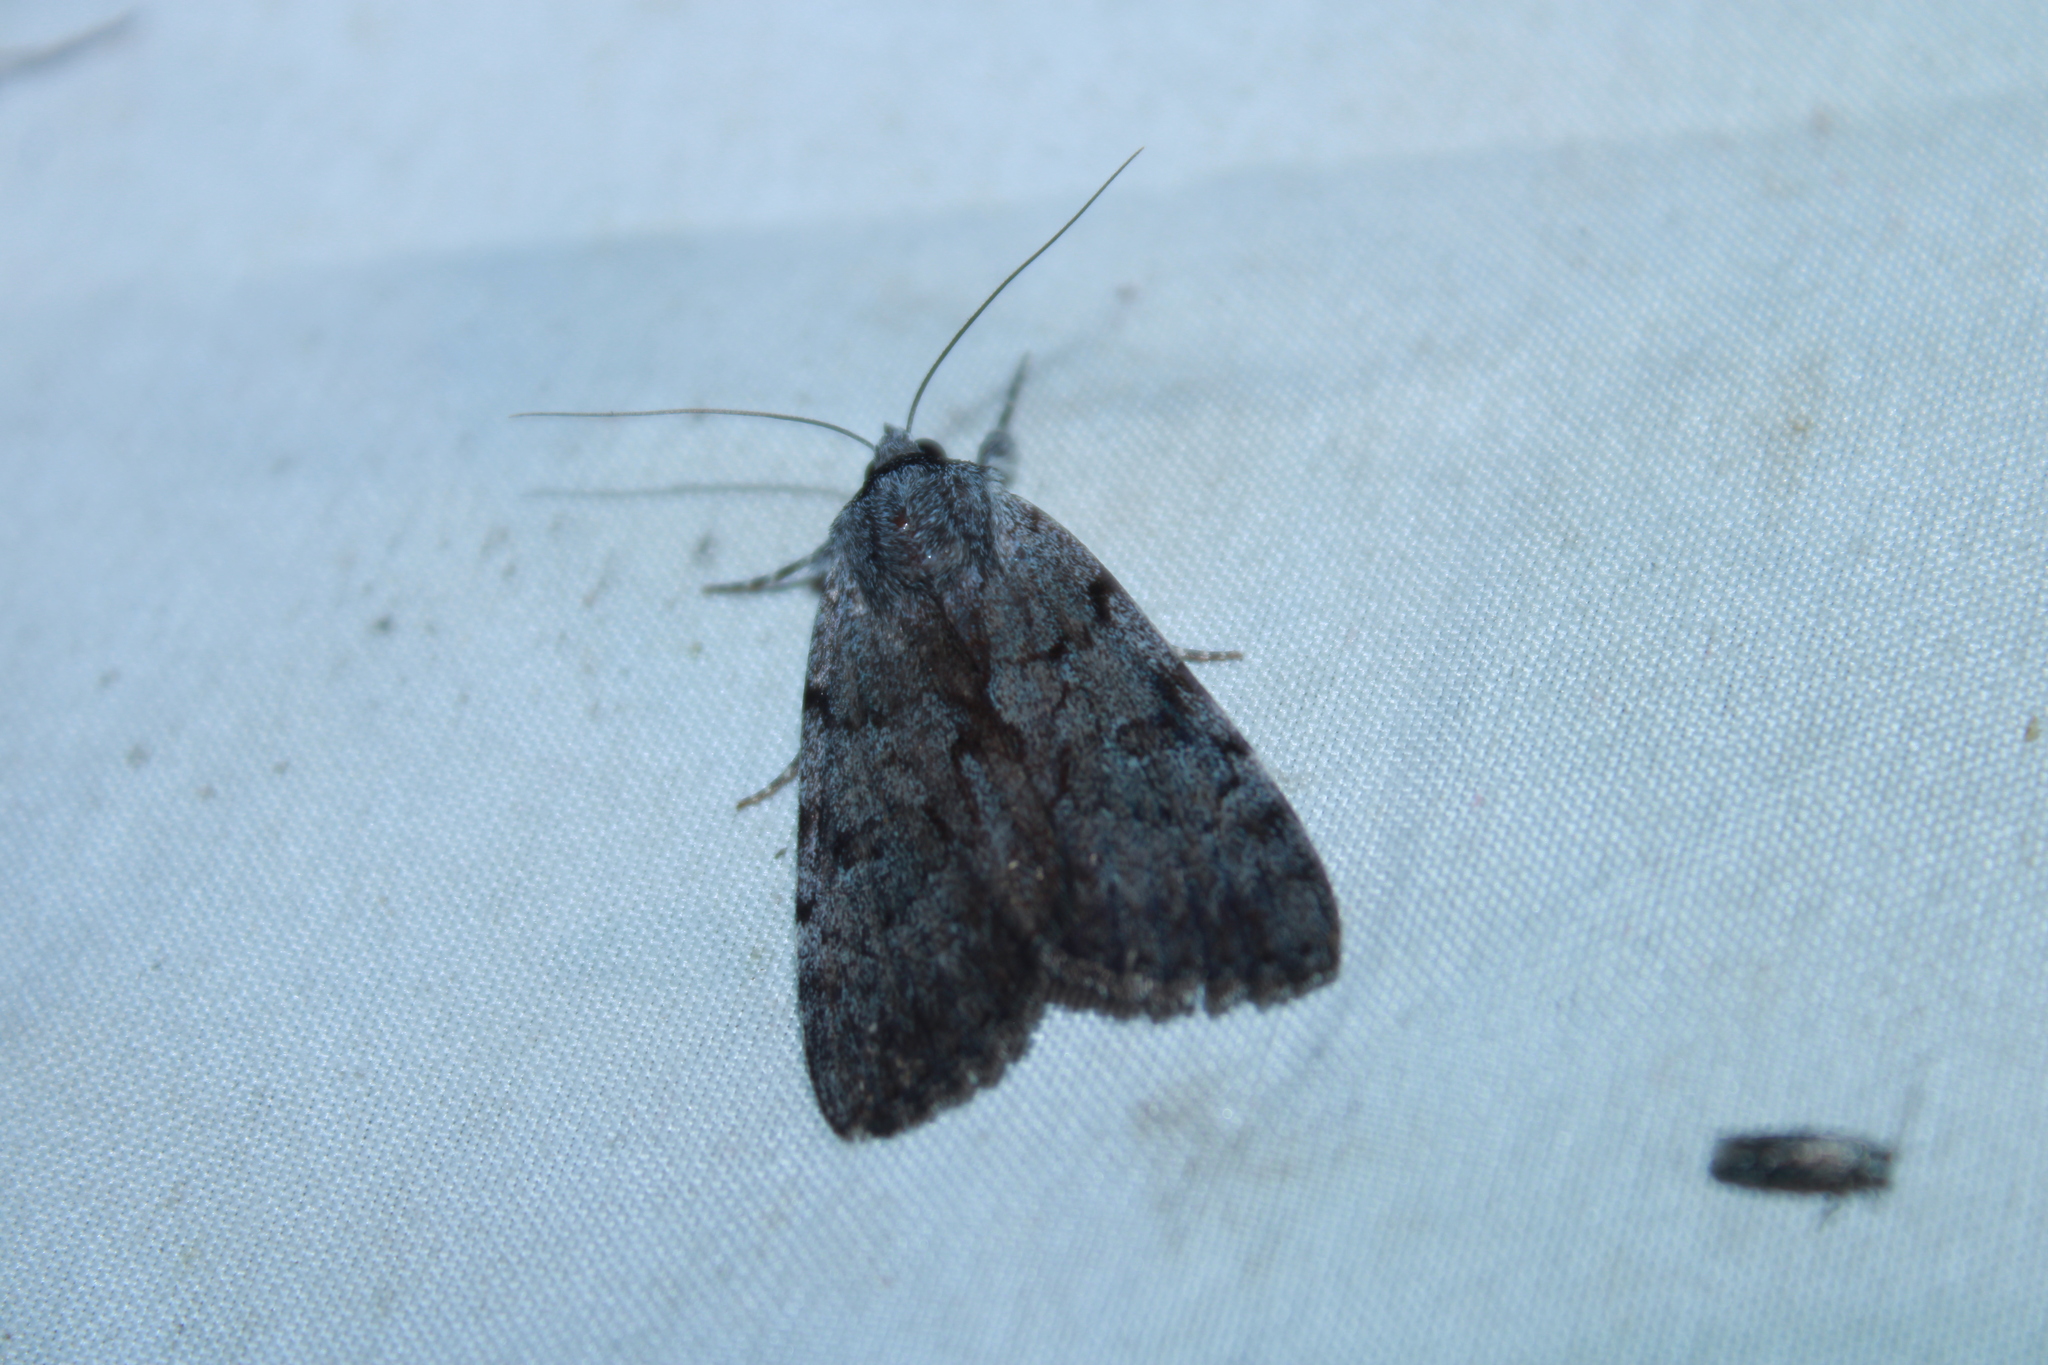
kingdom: Animalia
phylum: Arthropoda
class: Insecta
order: Lepidoptera
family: Erebidae
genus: Catocala
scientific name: Catocala sordida
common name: Sordid underwing
